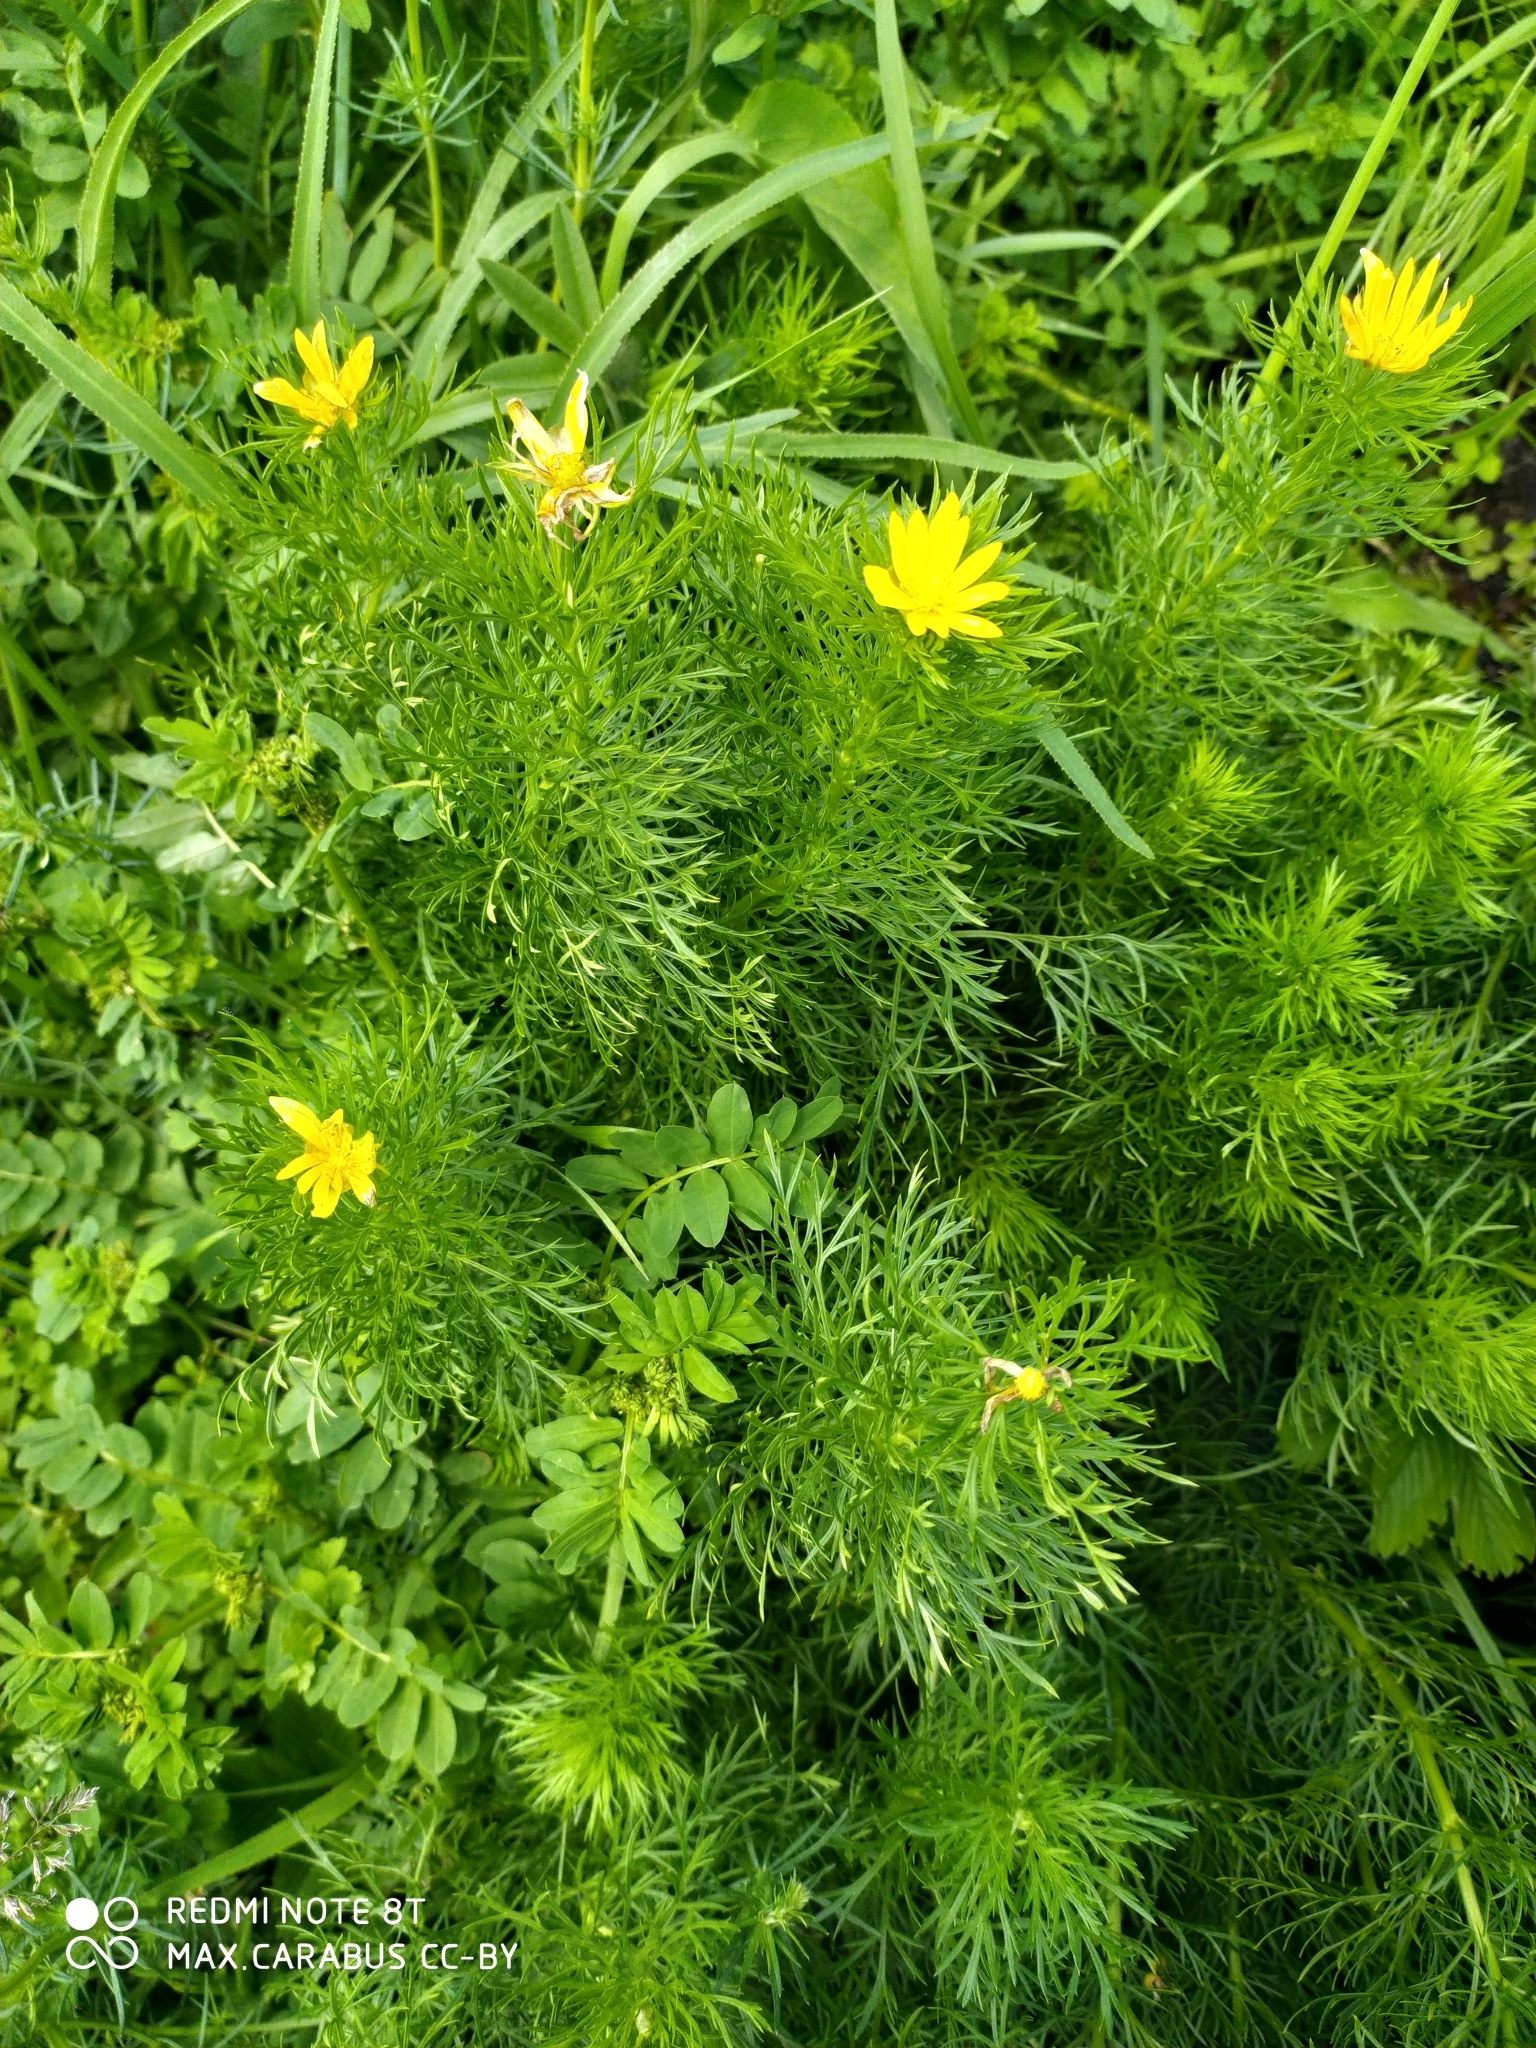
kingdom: Plantae
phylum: Tracheophyta
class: Magnoliopsida
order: Ranunculales
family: Ranunculaceae
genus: Adonis
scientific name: Adonis vernalis
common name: Yellow pheasants-eye
